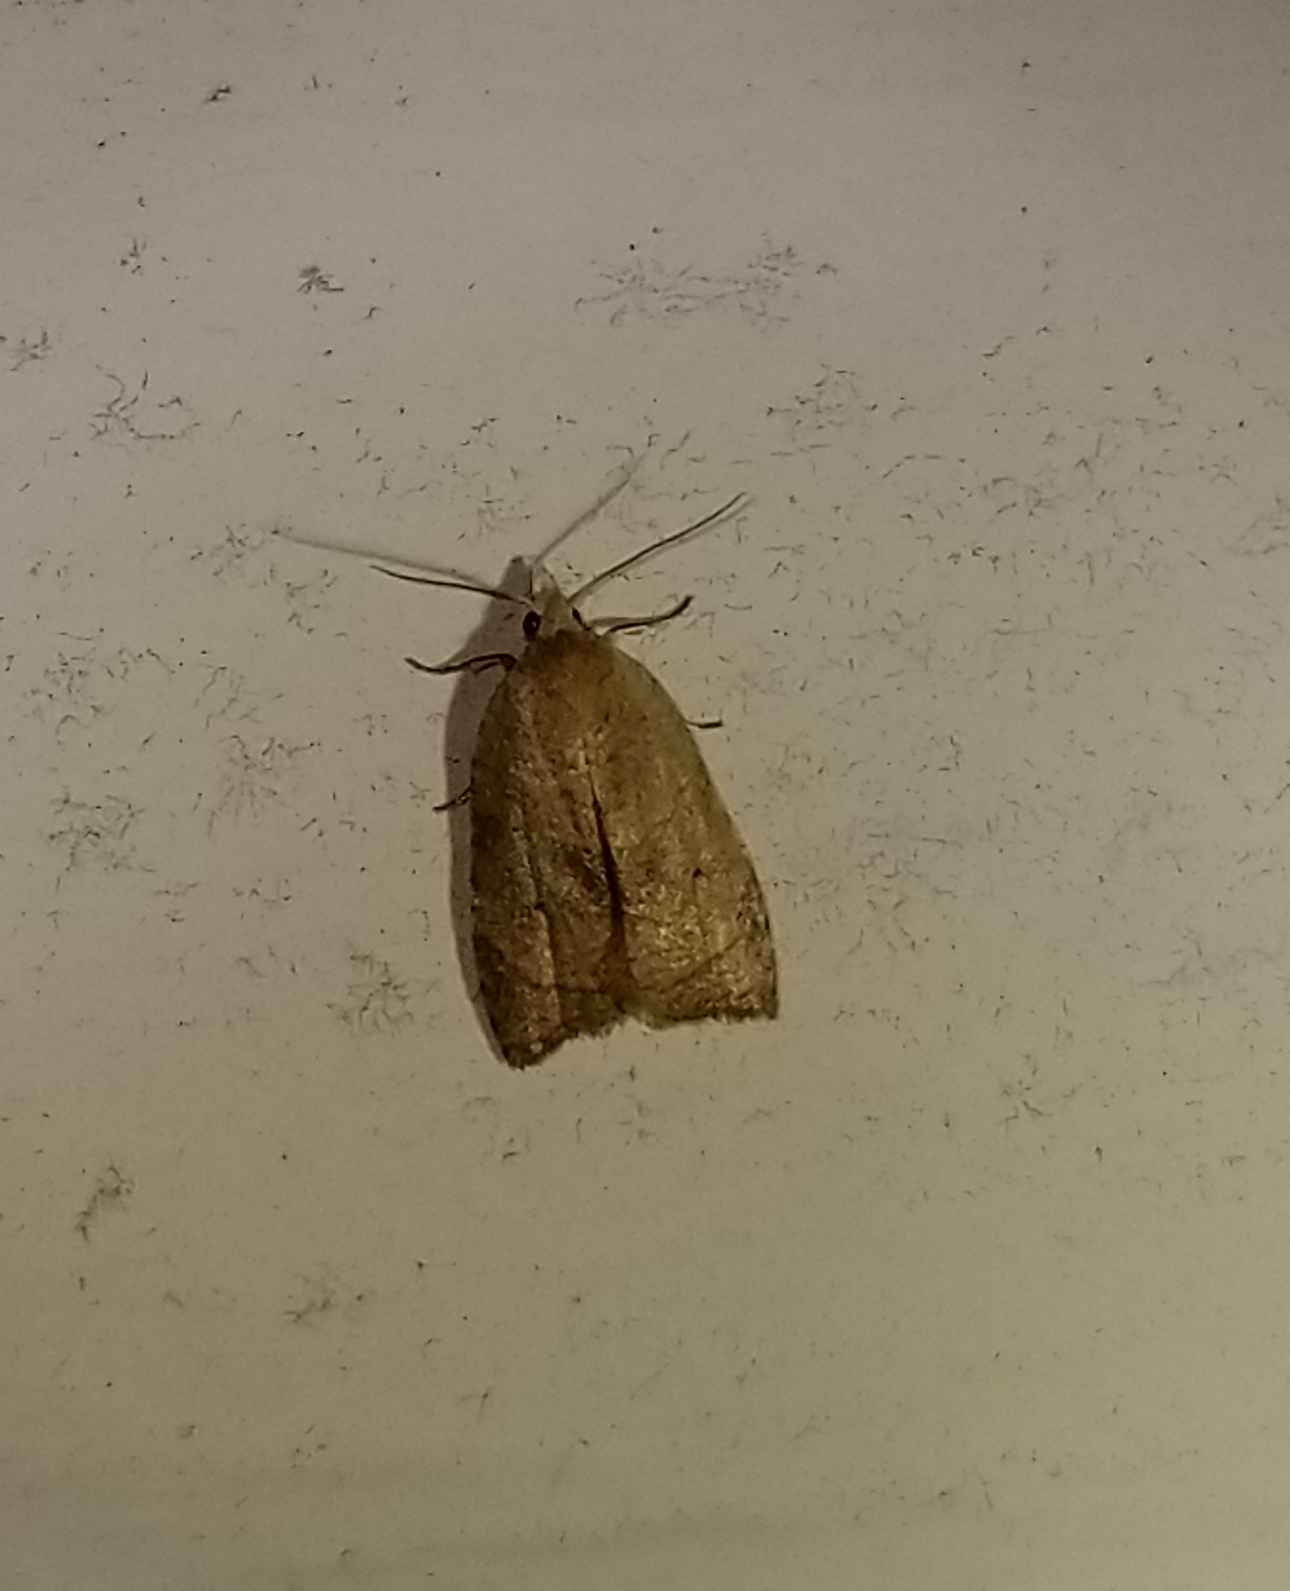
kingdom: Animalia
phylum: Arthropoda
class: Insecta
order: Lepidoptera
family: Tortricidae
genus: Coelostathma
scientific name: Coelostathma discopunctana
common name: Batman moth
